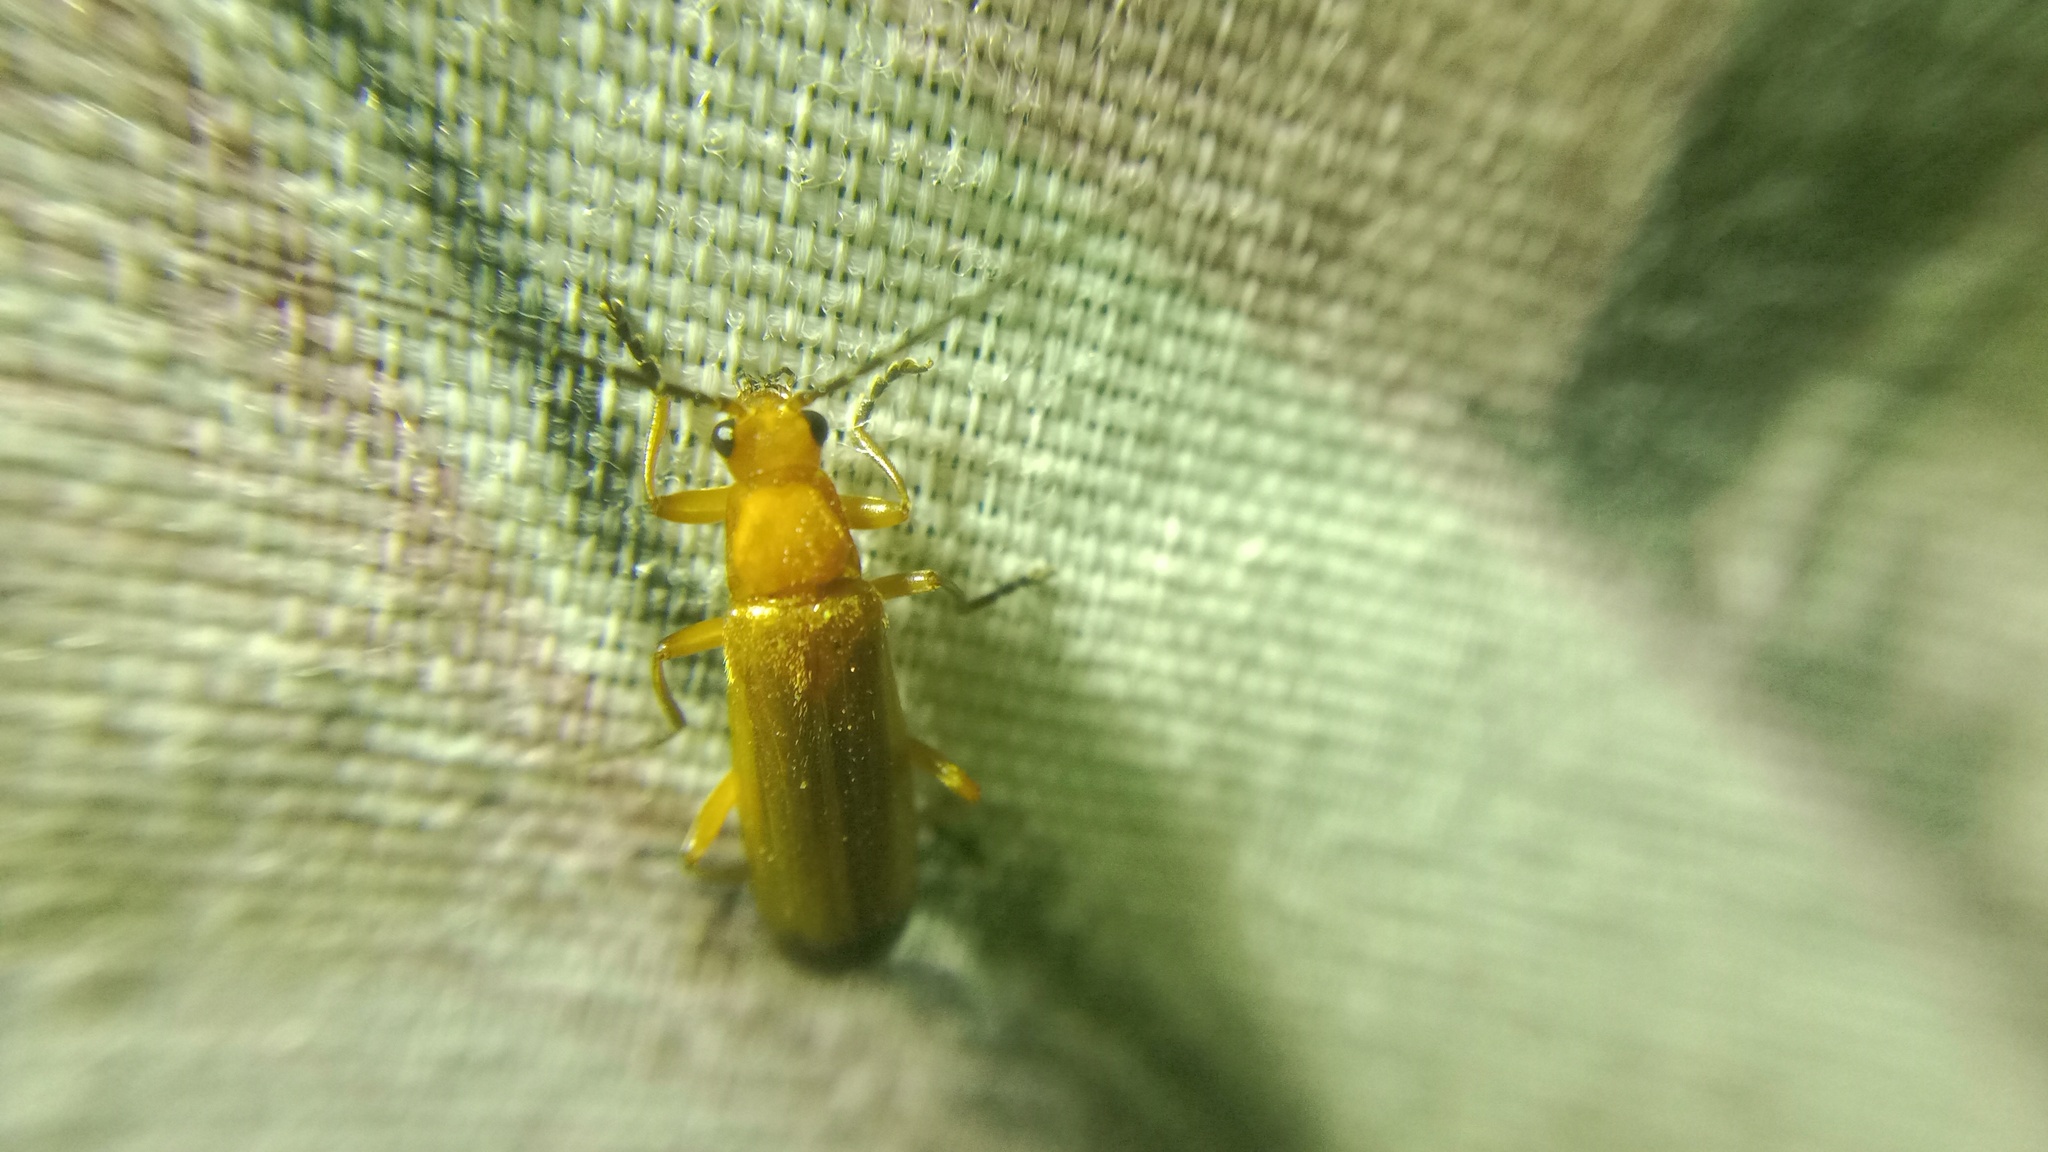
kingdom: Animalia
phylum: Arthropoda
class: Insecta
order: Coleoptera
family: Cantharidae
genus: Rhagonycha
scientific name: Rhagonycha fulva
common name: Common red soldier beetle
